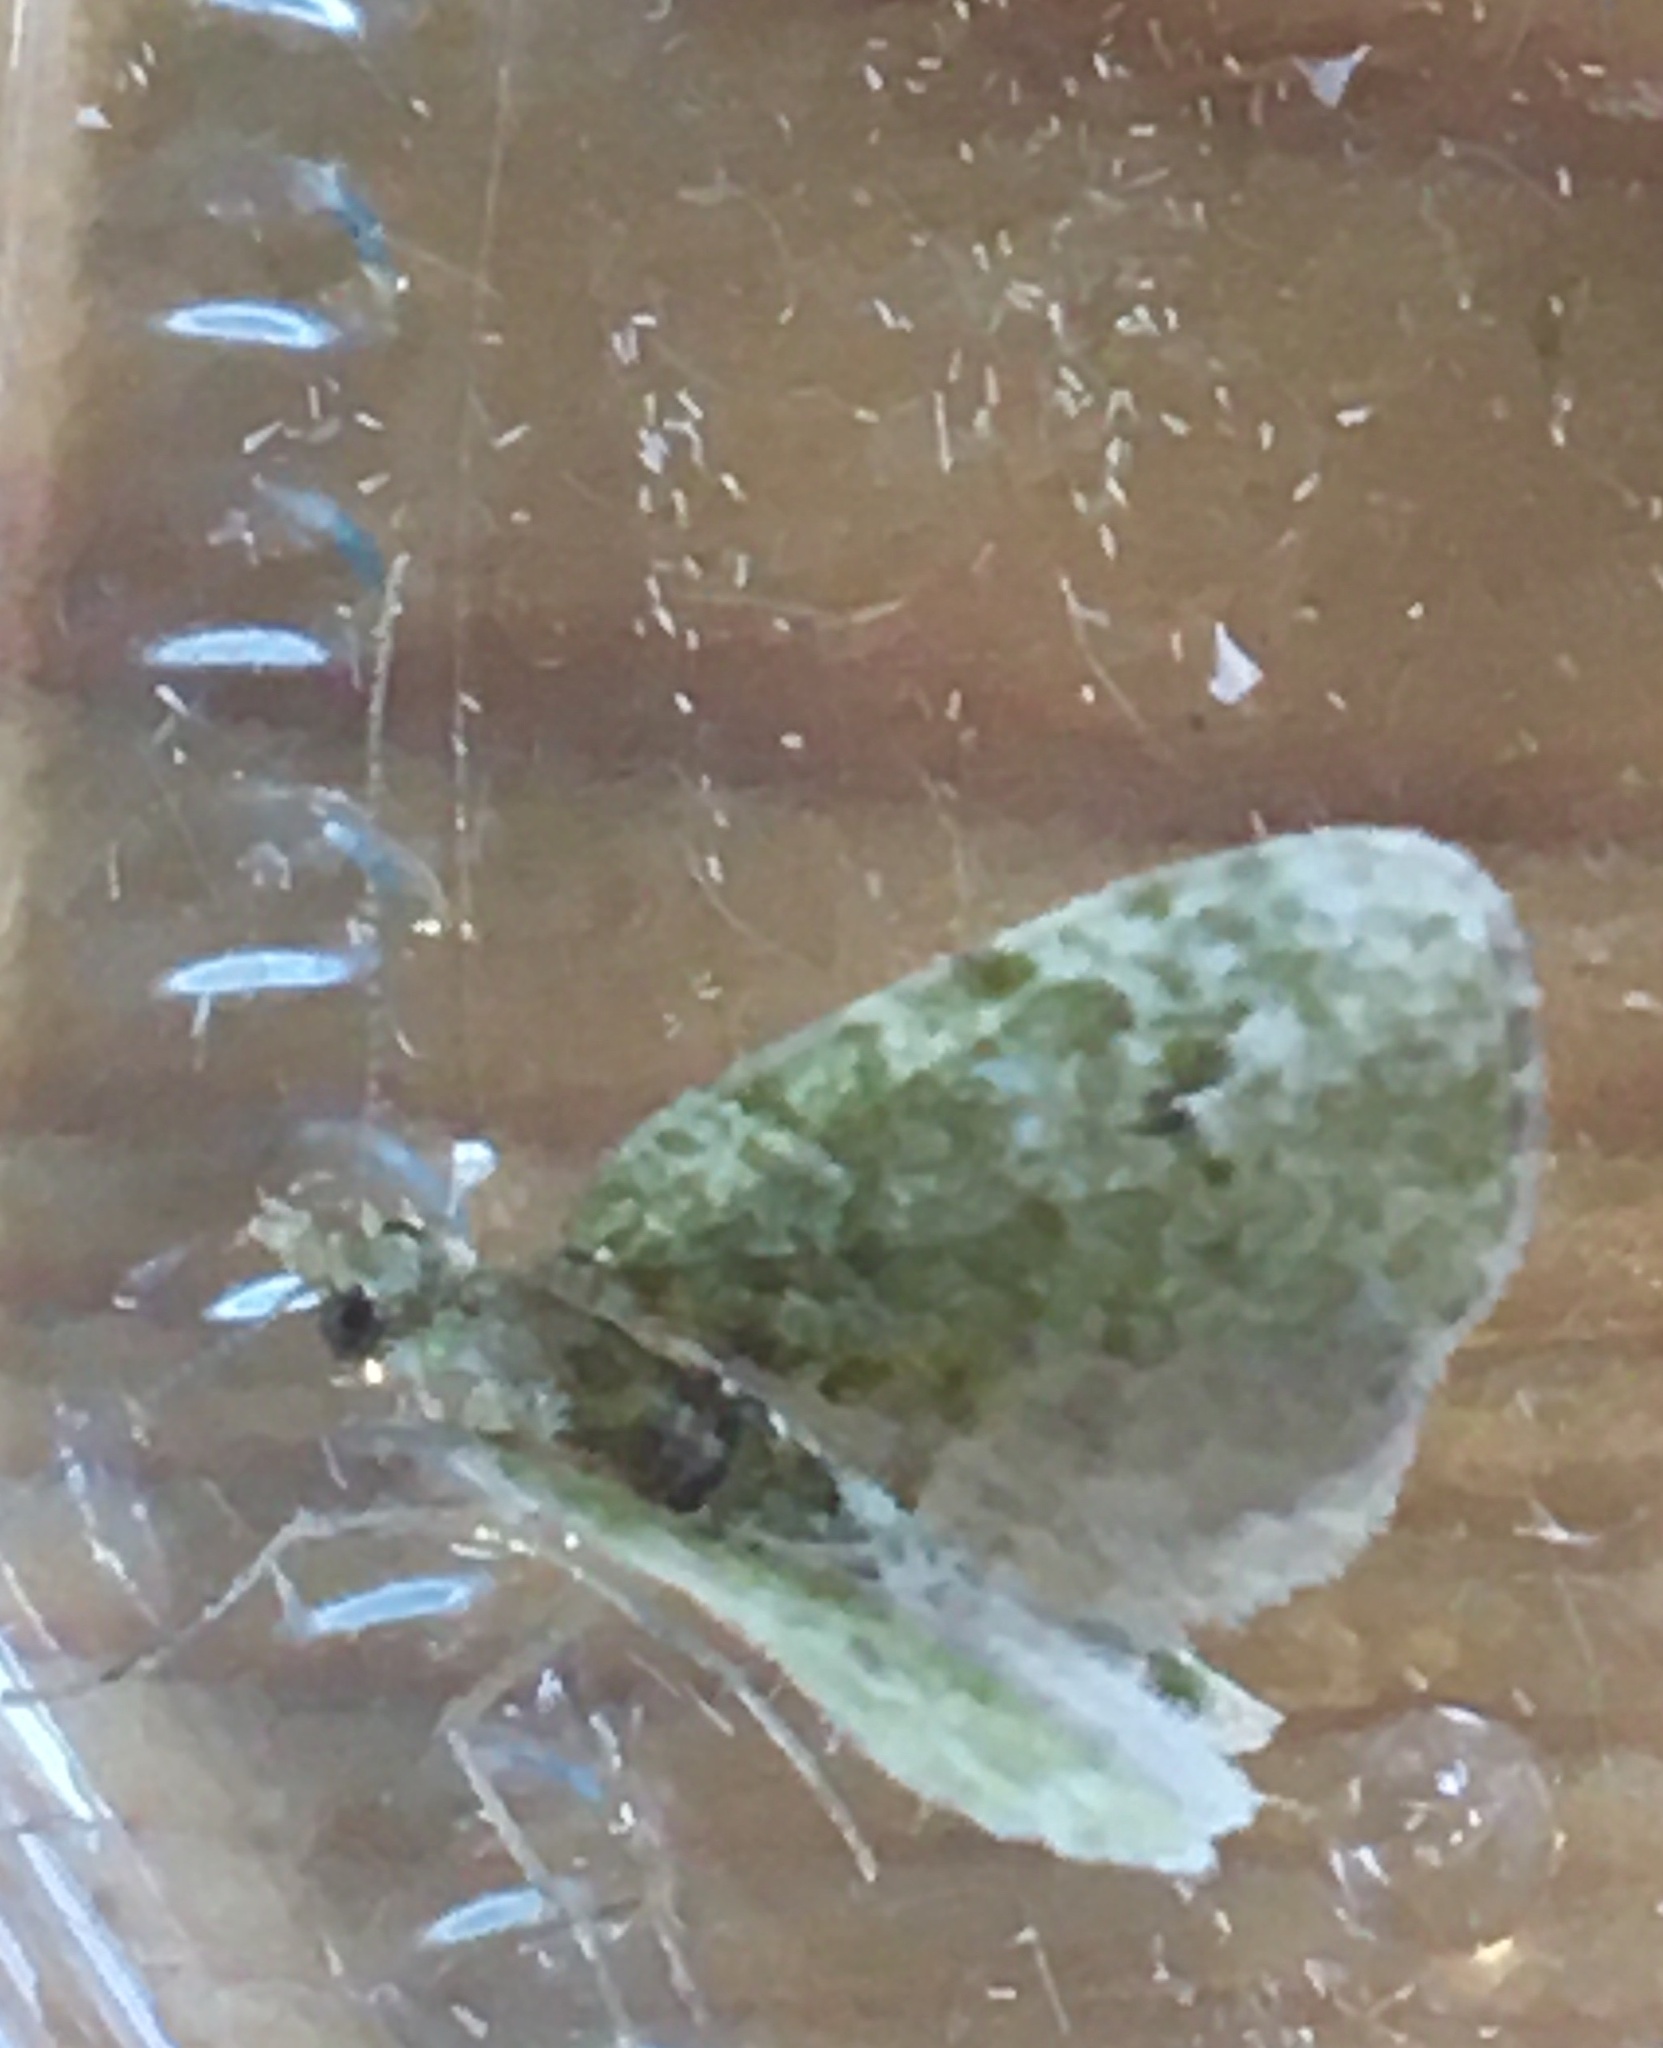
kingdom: Animalia
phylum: Arthropoda
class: Insecta
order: Lepidoptera
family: Geometridae
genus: Chloroclystis
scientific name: Chloroclystis v-ata
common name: V-pug
